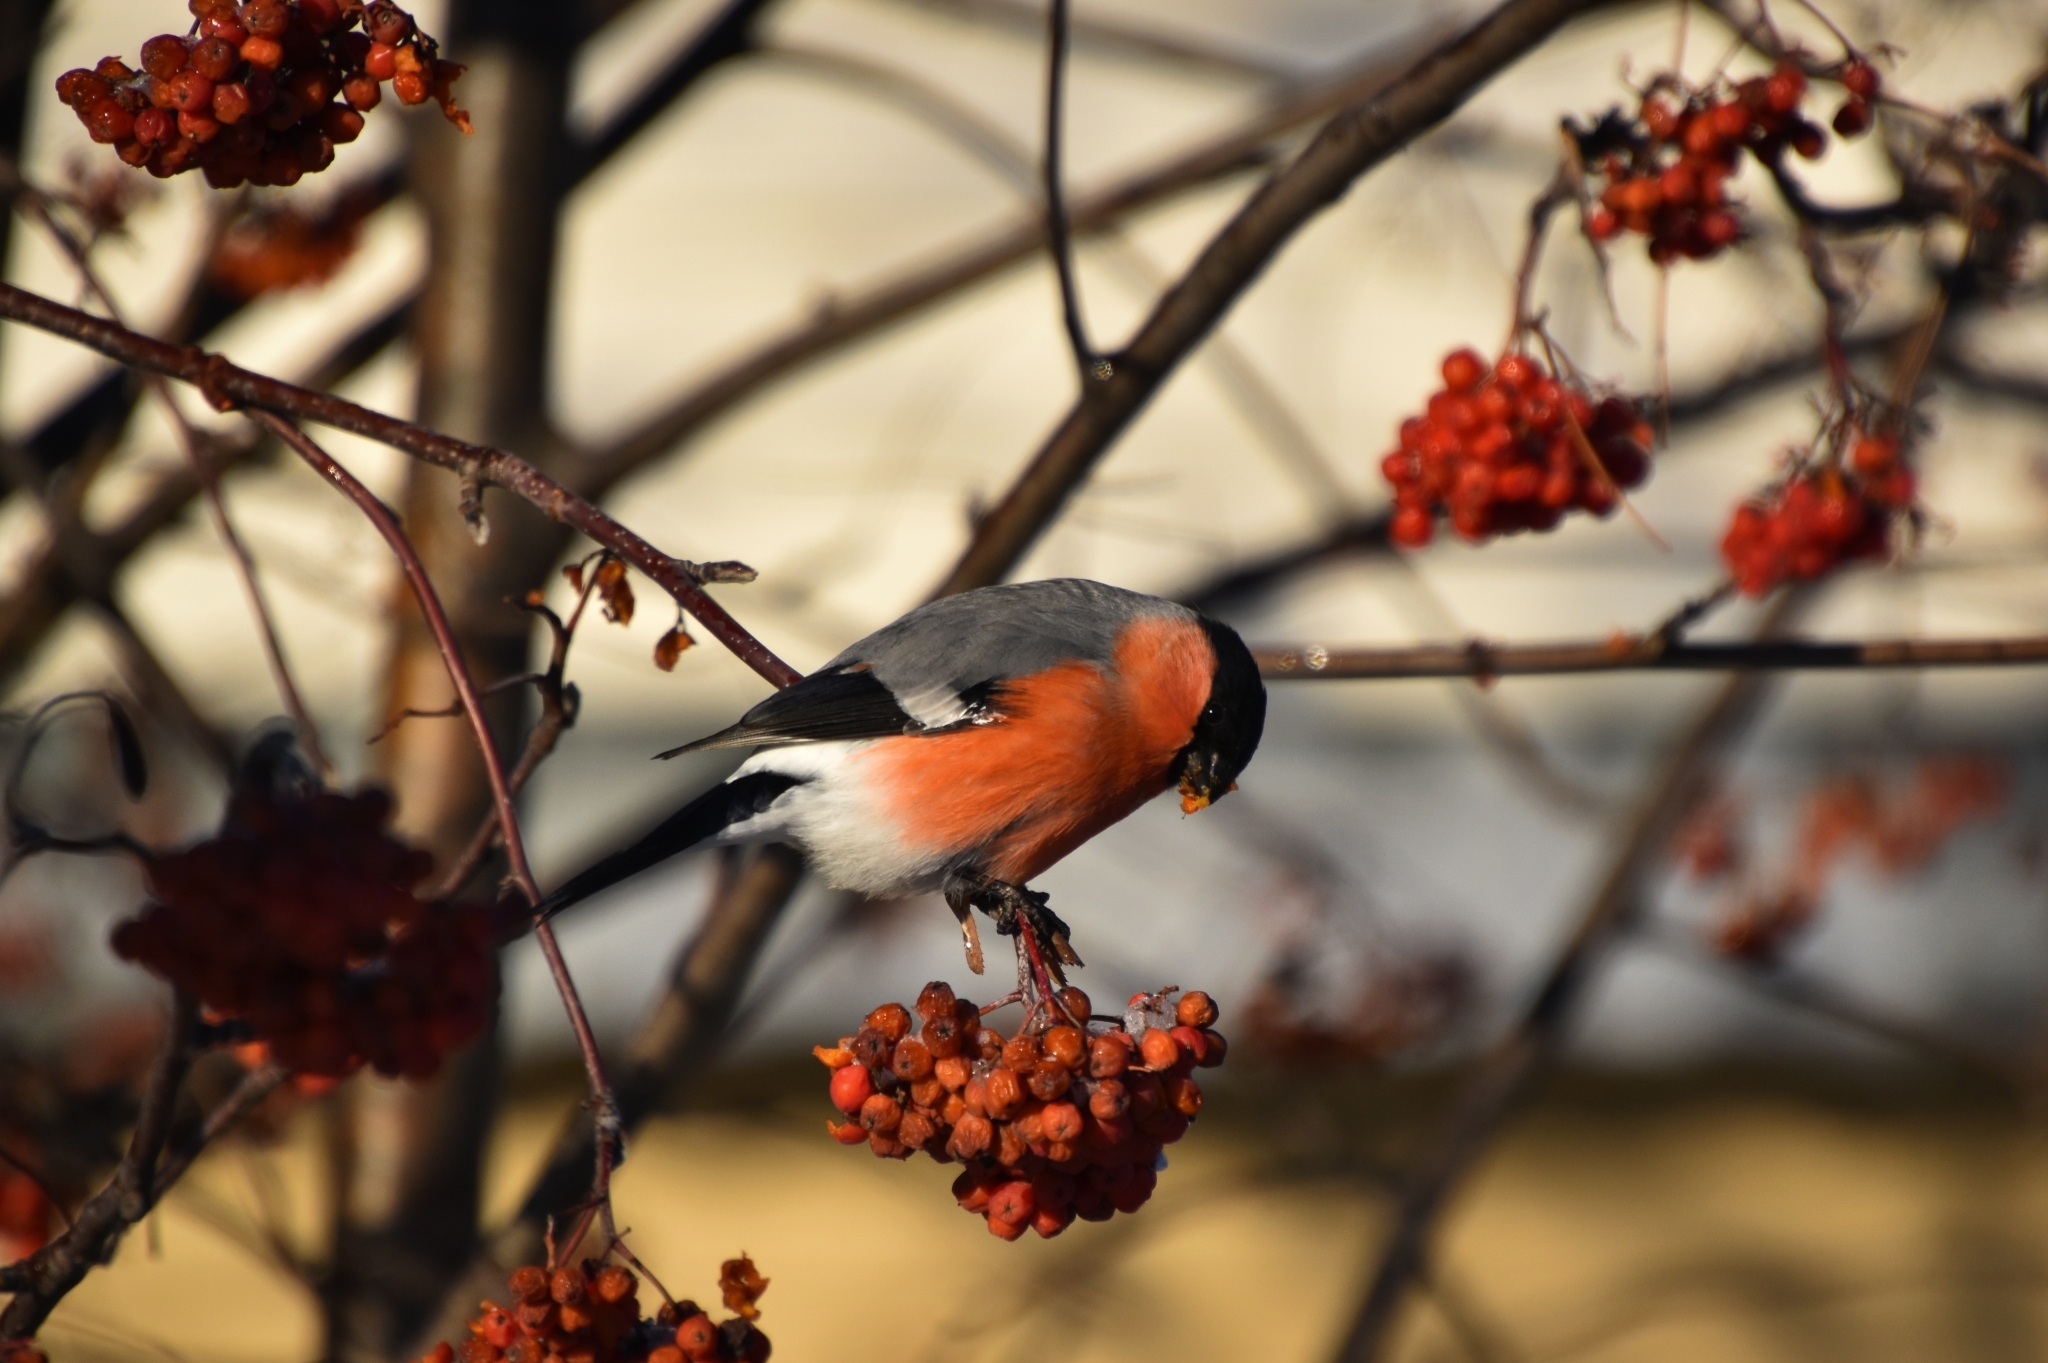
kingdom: Animalia
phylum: Chordata
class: Aves
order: Passeriformes
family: Fringillidae
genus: Pyrrhula
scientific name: Pyrrhula pyrrhula
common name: Eurasian bullfinch
